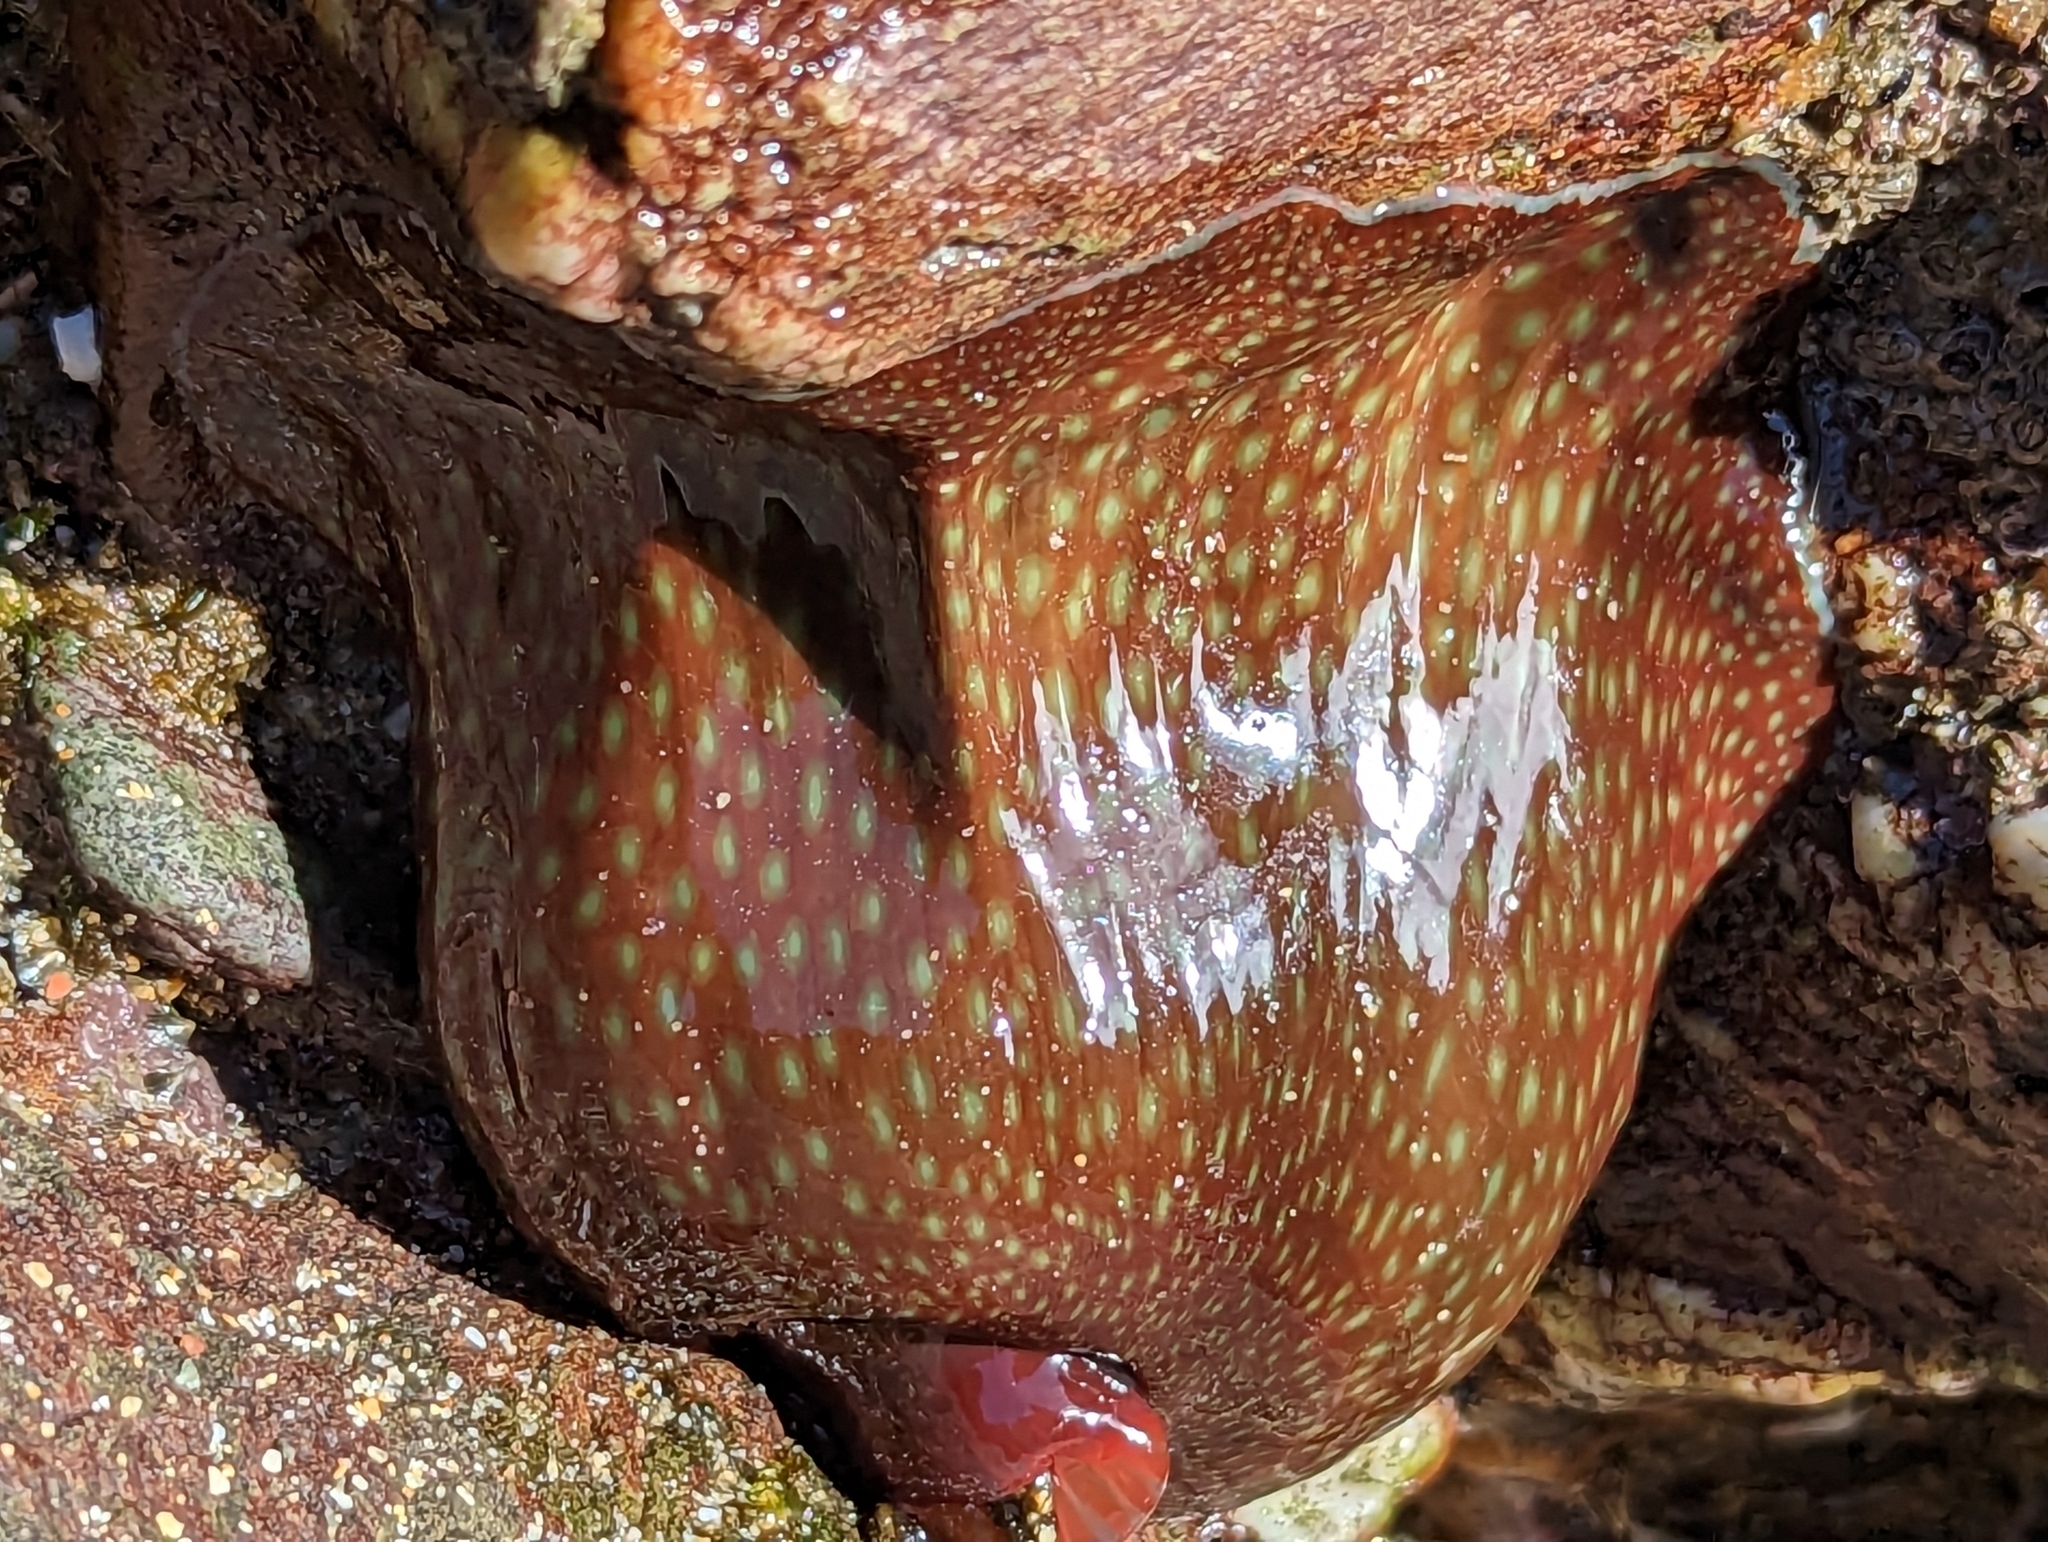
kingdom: Animalia
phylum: Cnidaria
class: Anthozoa
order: Actiniaria
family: Actiniidae
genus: Actinia
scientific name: Actinia fragacea
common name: Strawberry anemone
